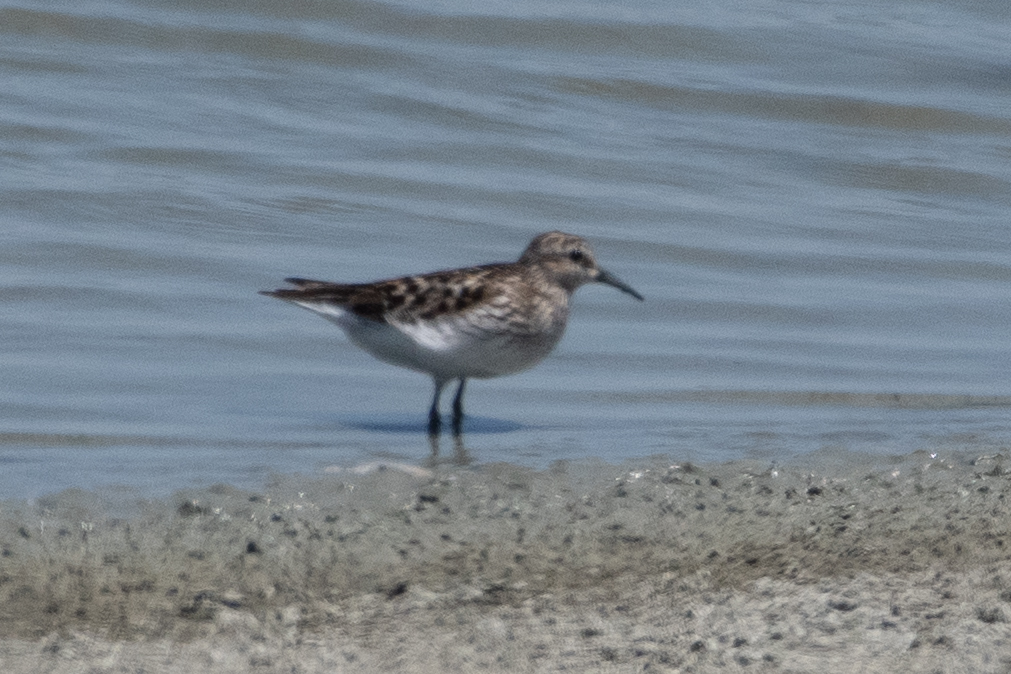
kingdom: Animalia
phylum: Chordata
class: Aves
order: Charadriiformes
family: Scolopacidae
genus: Calidris
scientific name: Calidris minutilla
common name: Least sandpiper
